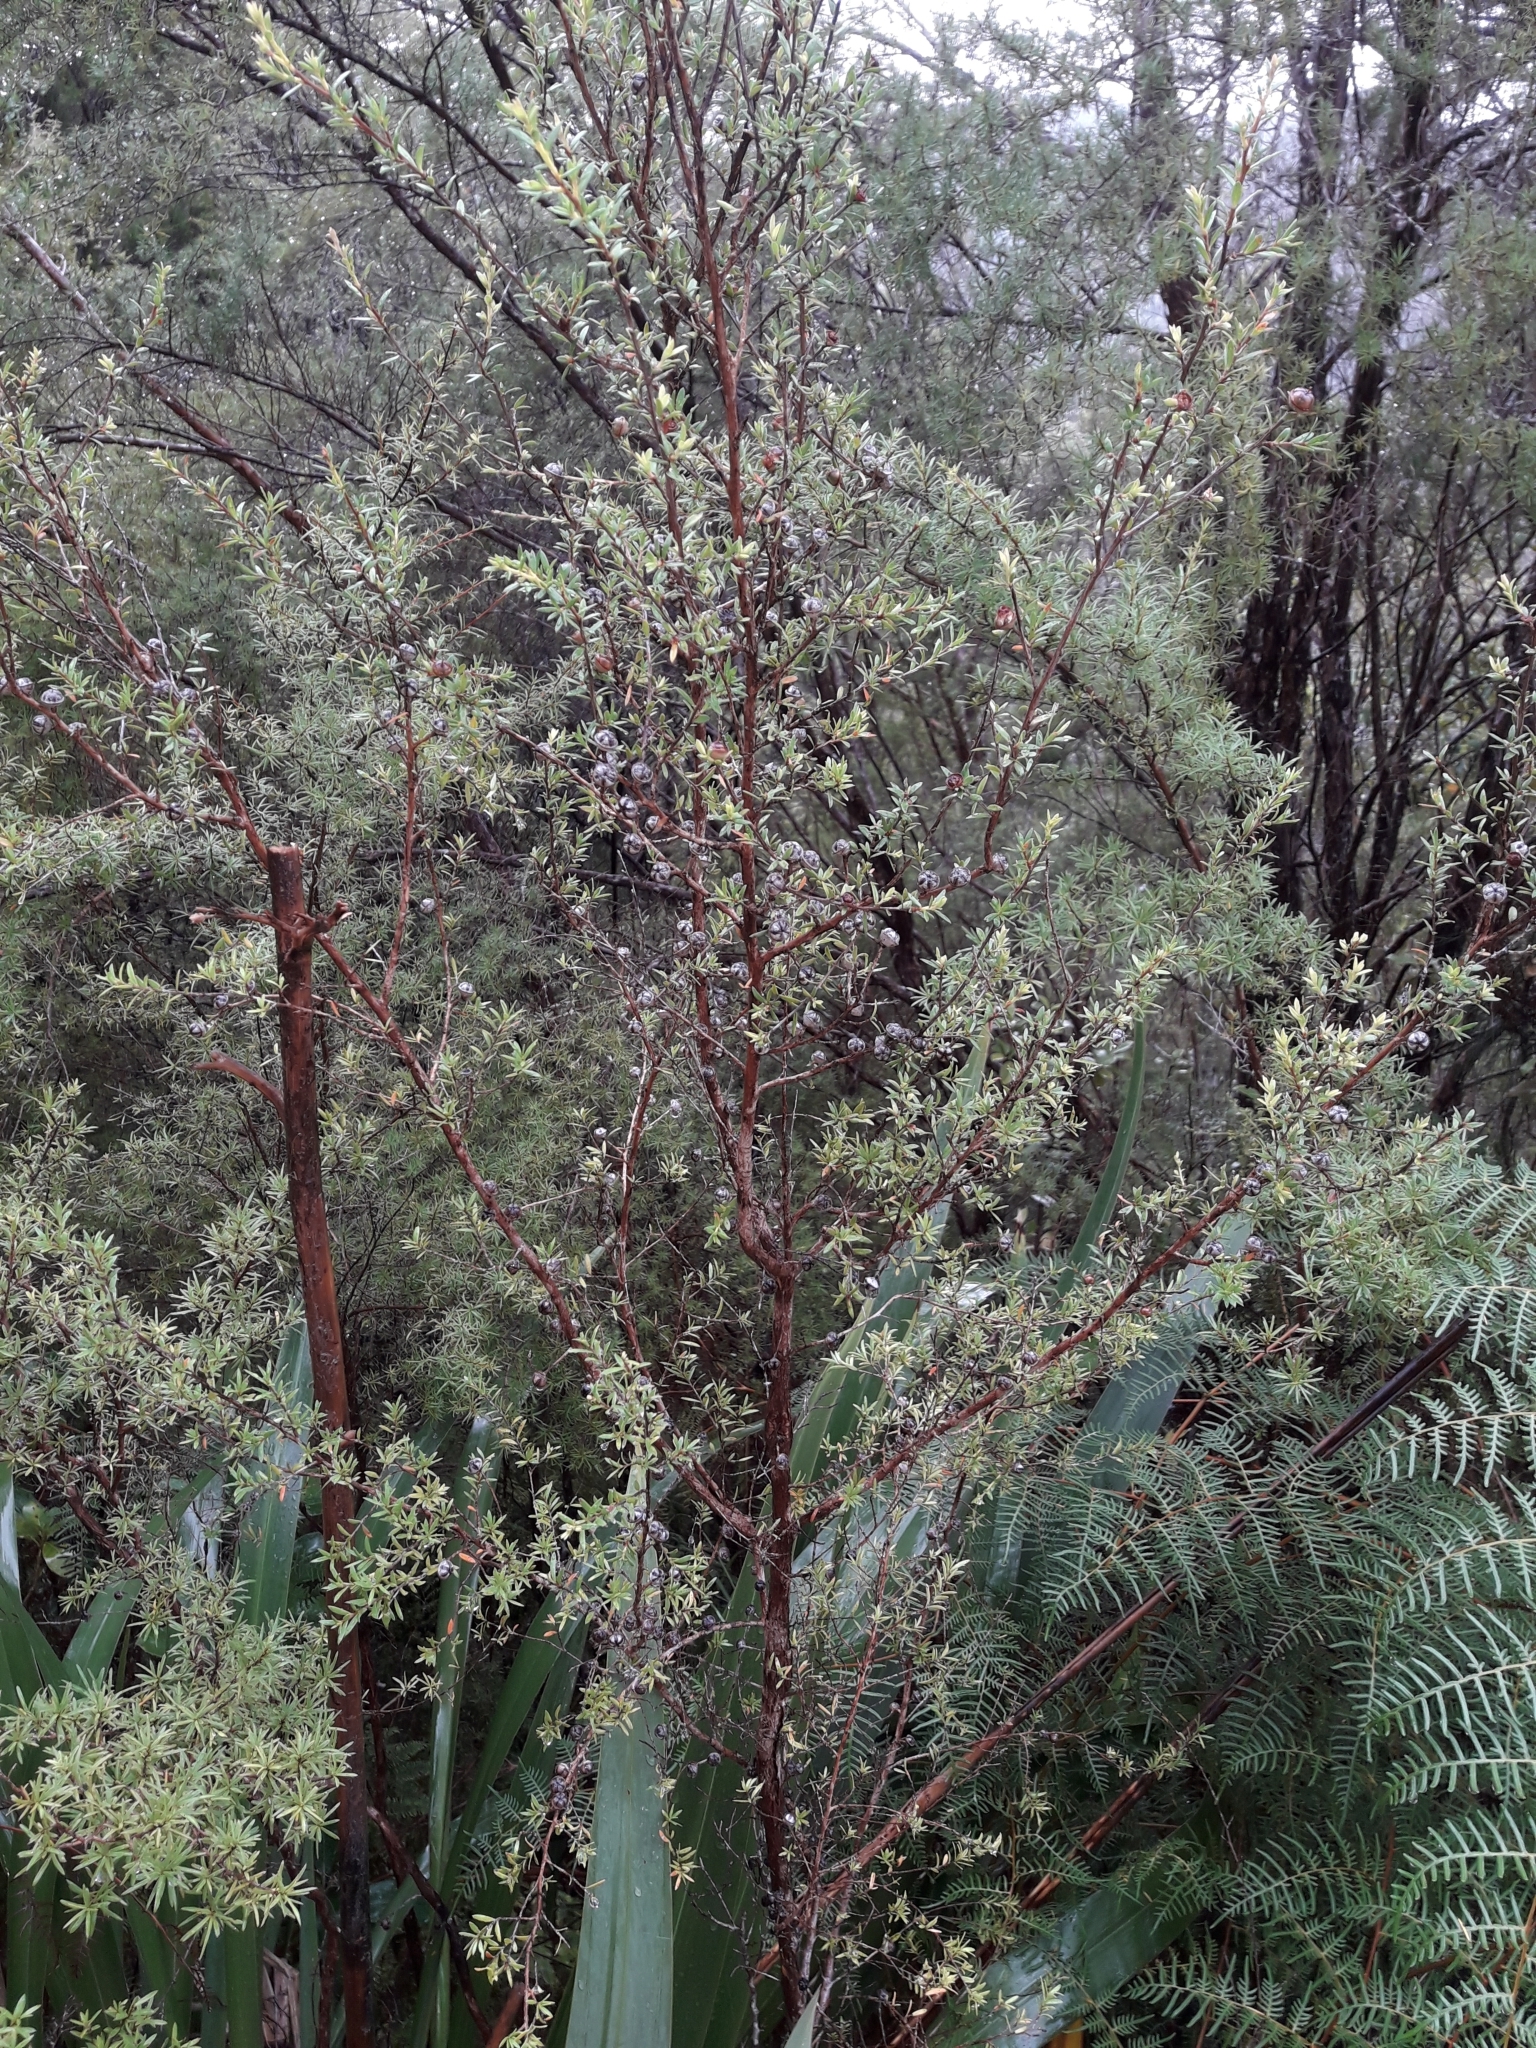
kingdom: Plantae
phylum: Tracheophyta
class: Magnoliopsida
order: Myrtales
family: Myrtaceae
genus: Leptospermum
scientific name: Leptospermum scoparium
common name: Broom tea-tree
